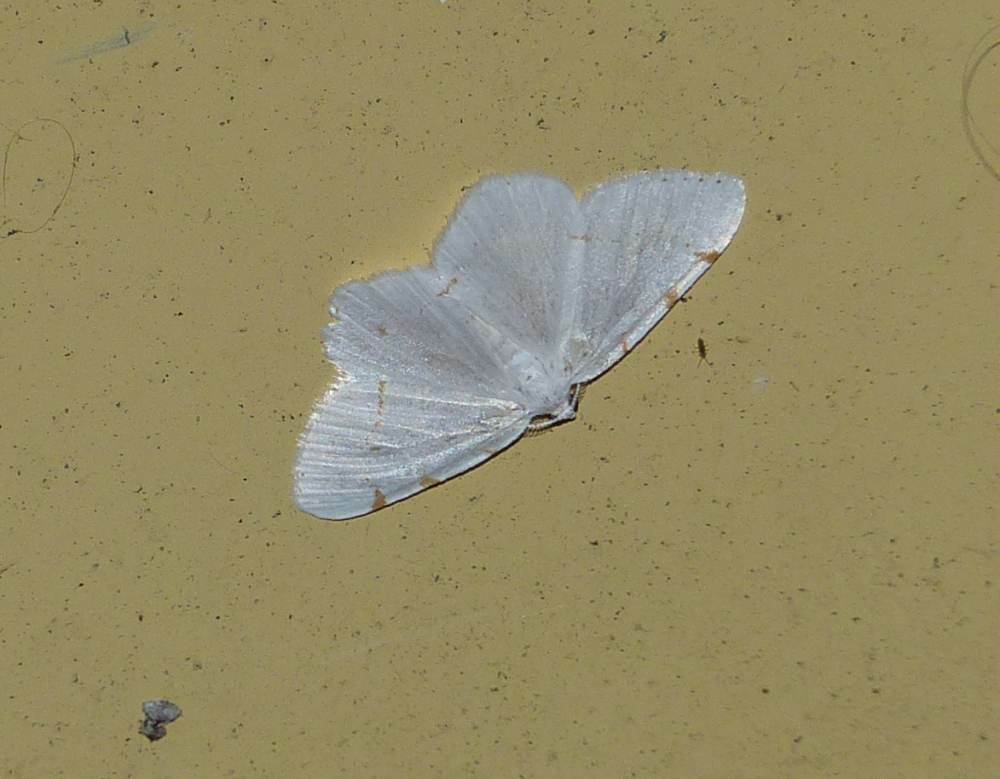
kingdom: Animalia
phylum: Arthropoda
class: Insecta
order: Lepidoptera
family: Geometridae
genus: Macaria
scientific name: Macaria pustularia
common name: Lesser maple spanworm moth
